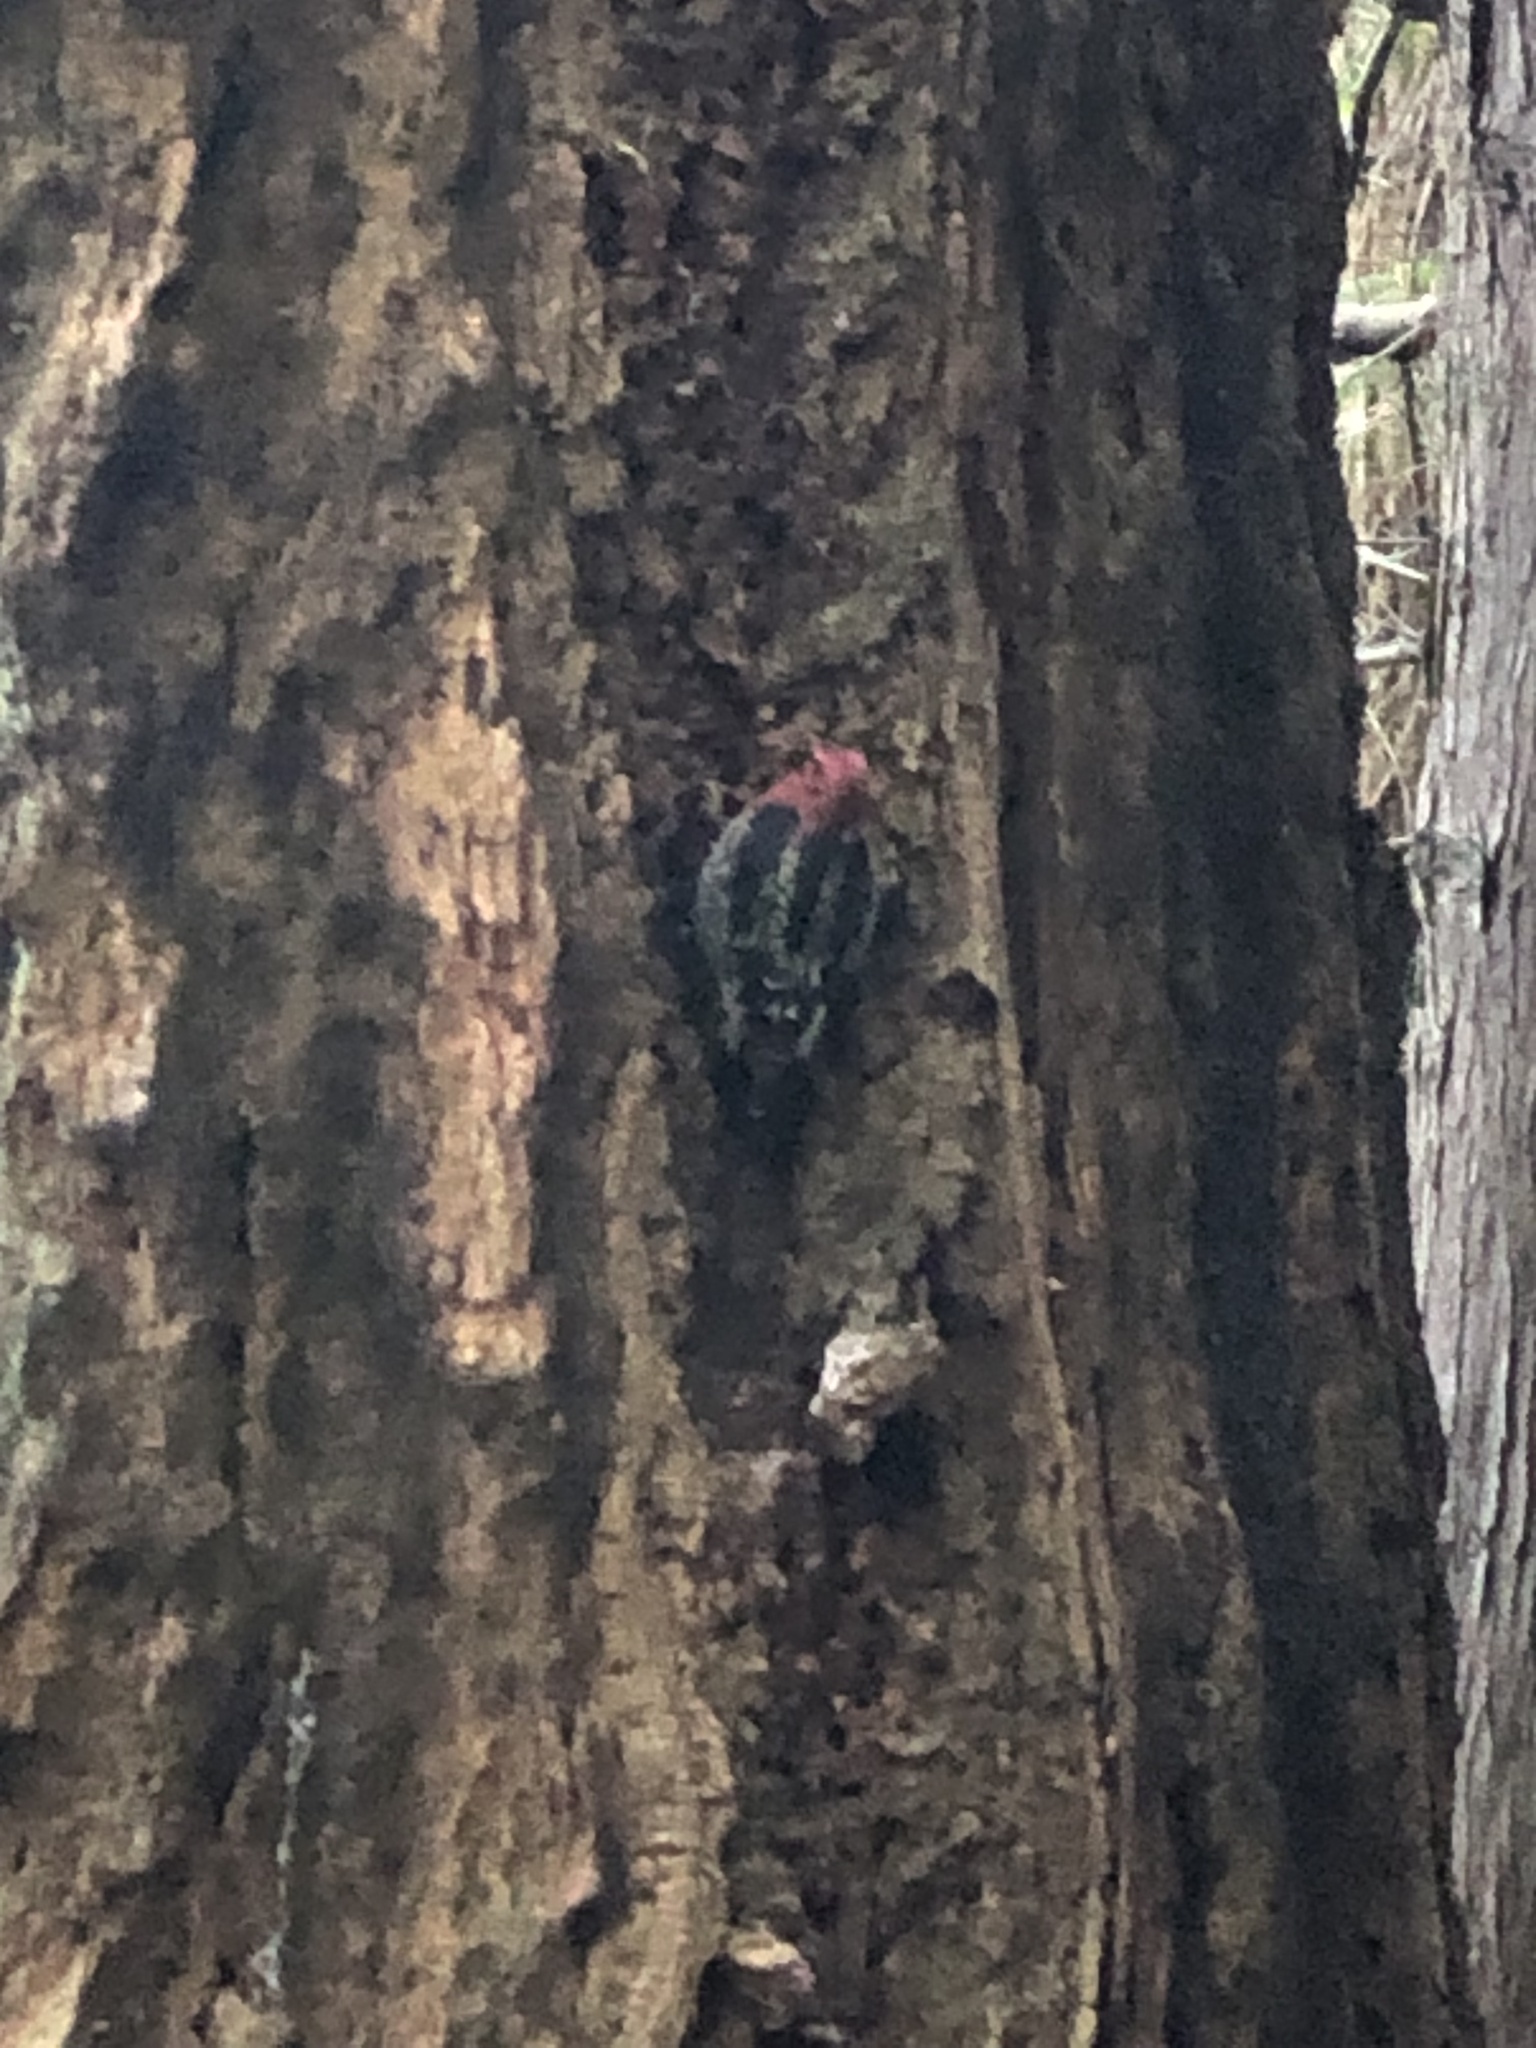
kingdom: Animalia
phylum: Chordata
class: Aves
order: Piciformes
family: Picidae
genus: Sphyrapicus
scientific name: Sphyrapicus ruber
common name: Red-breasted sapsucker
